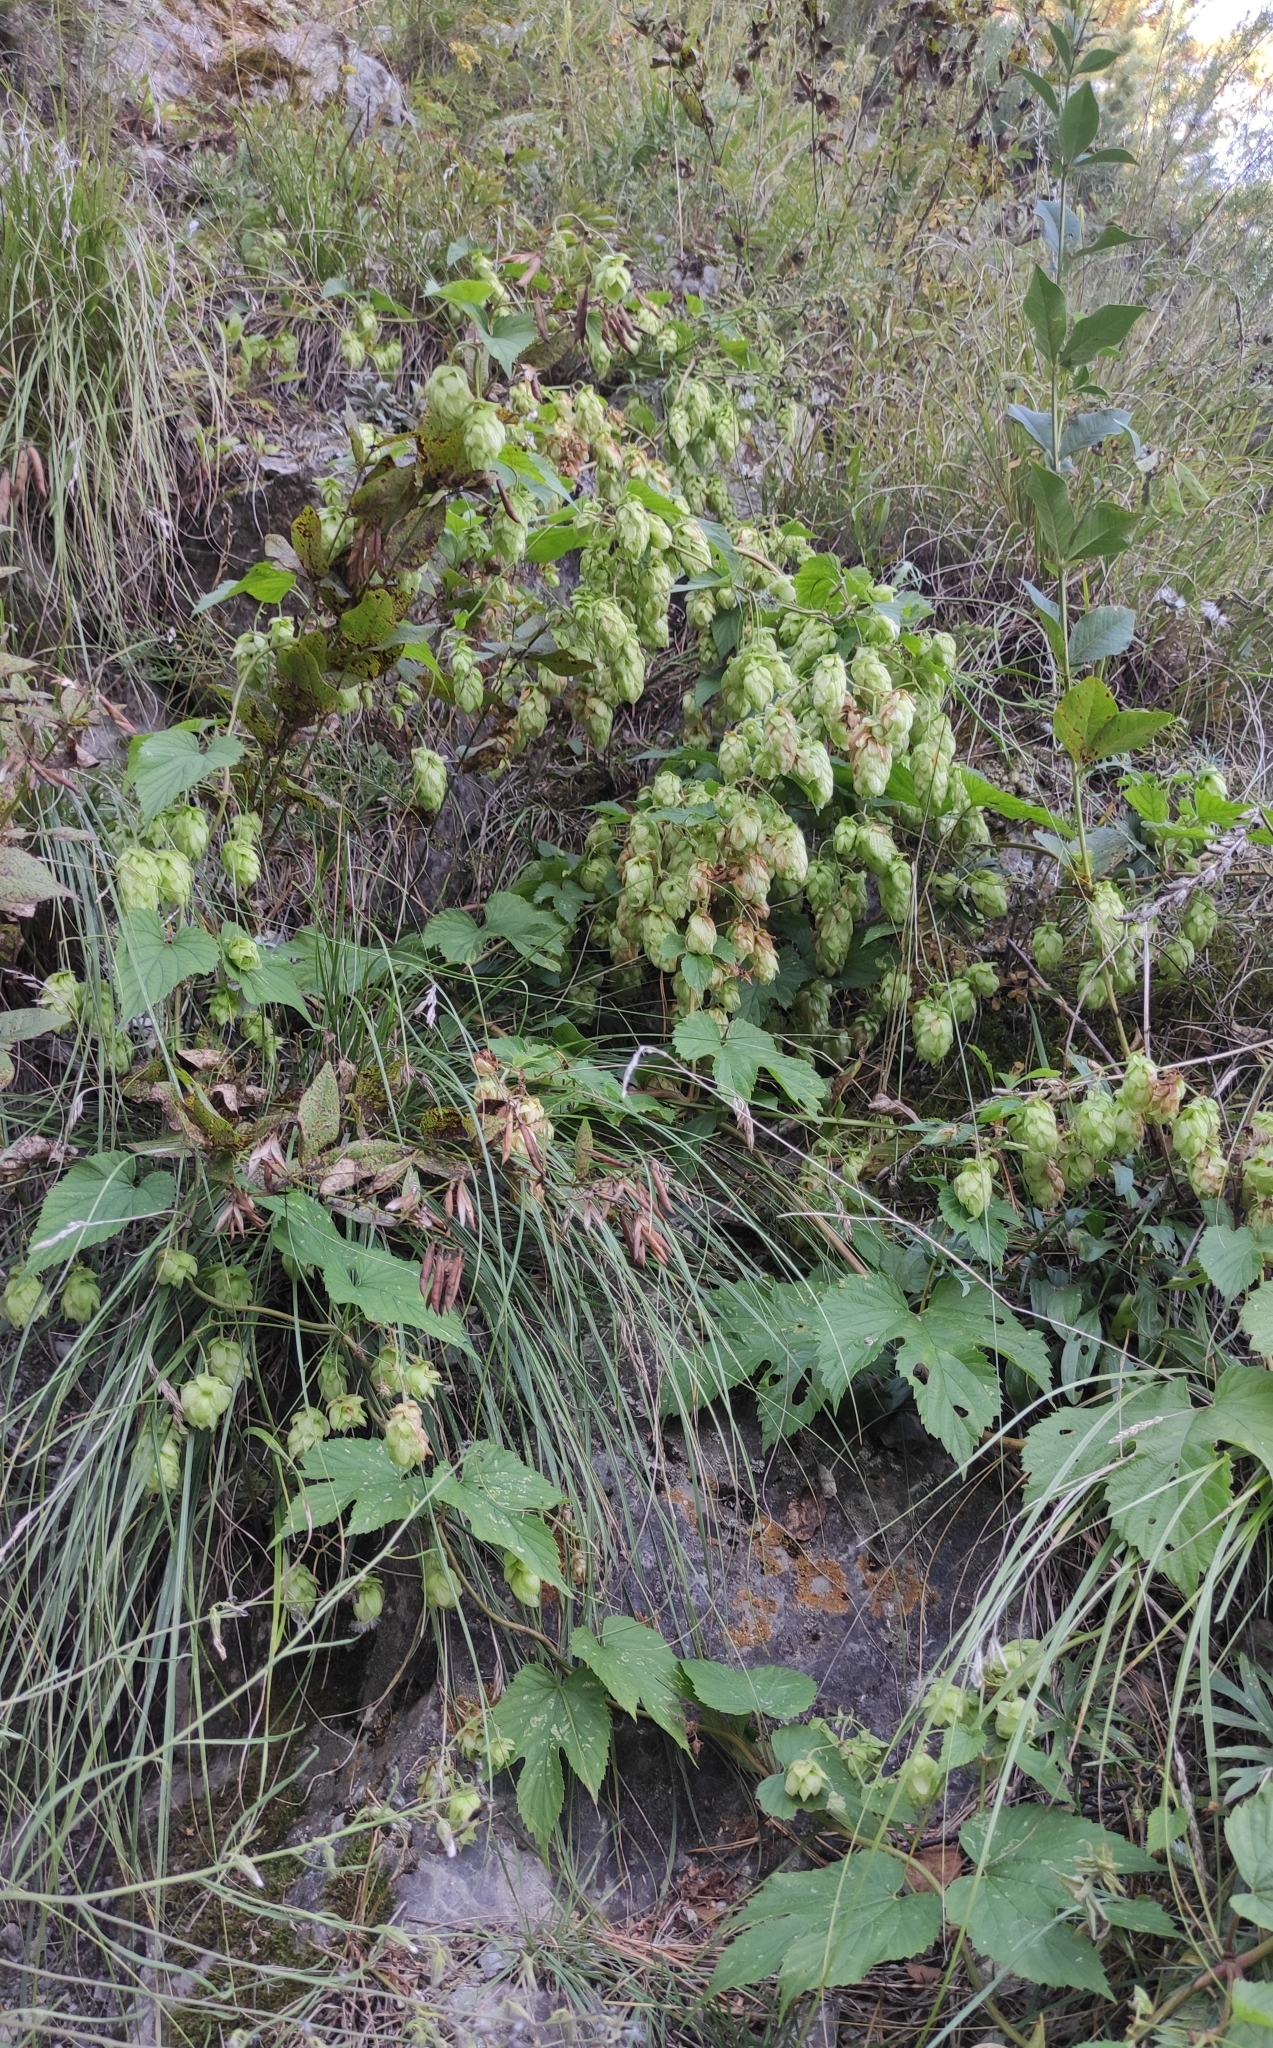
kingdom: Plantae
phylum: Tracheophyta
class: Magnoliopsida
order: Rosales
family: Cannabaceae
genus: Humulus
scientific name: Humulus lupulus
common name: Hop
